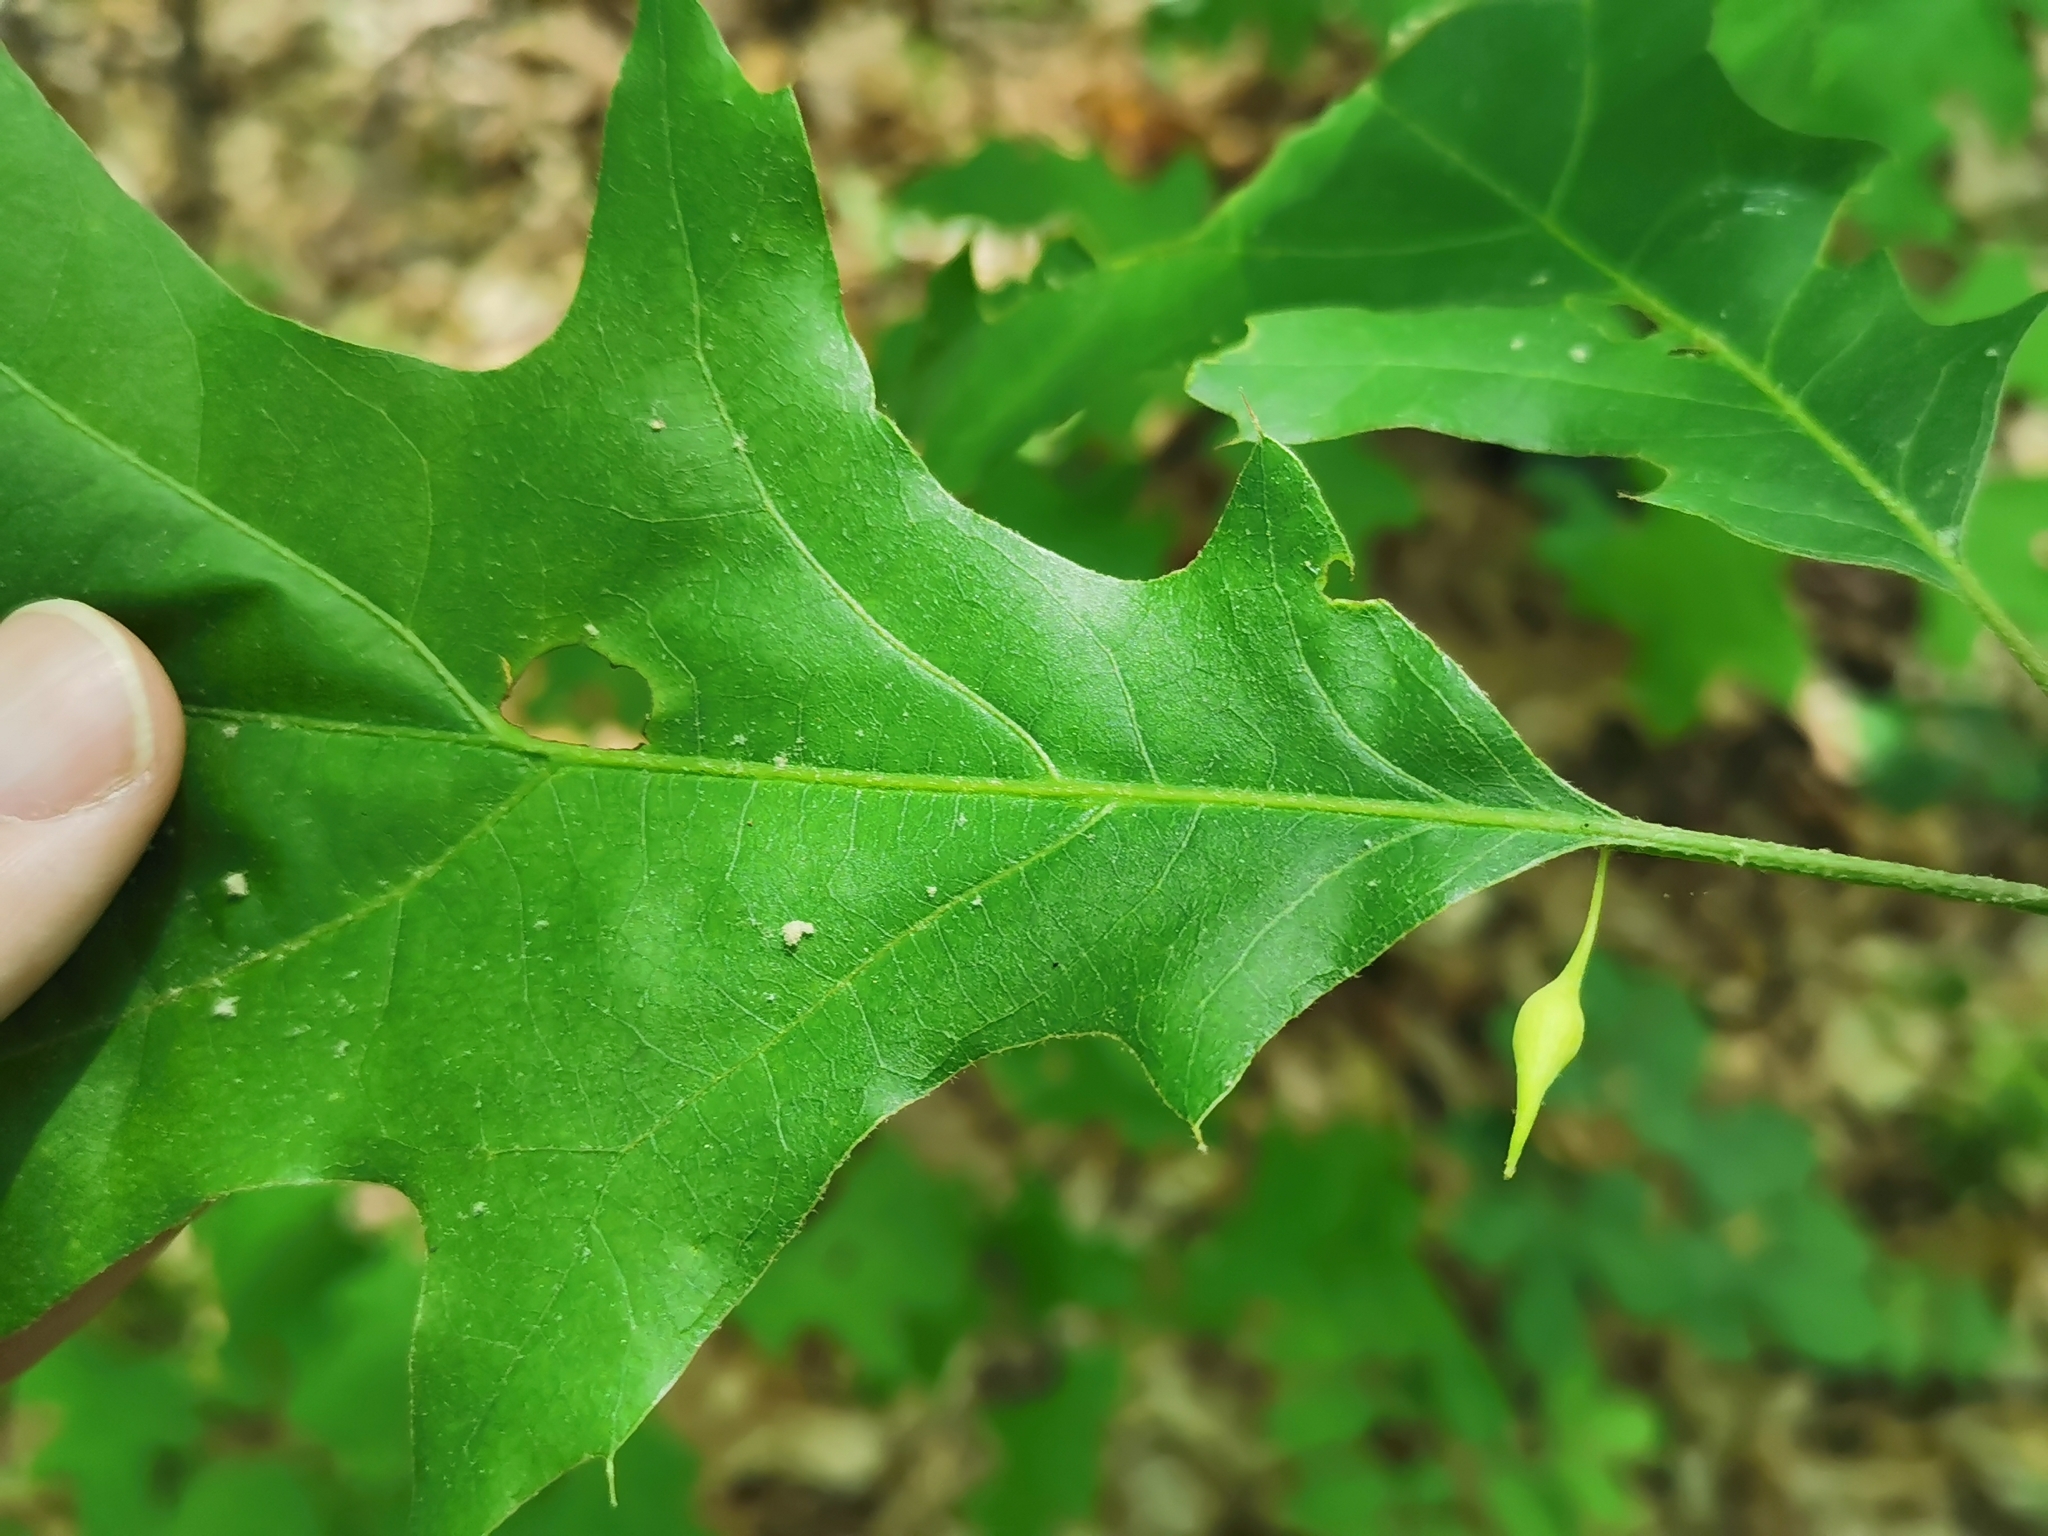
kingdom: Animalia
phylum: Arthropoda
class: Insecta
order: Hymenoptera
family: Cynipidae
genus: Amphibolips
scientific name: Amphibolips
